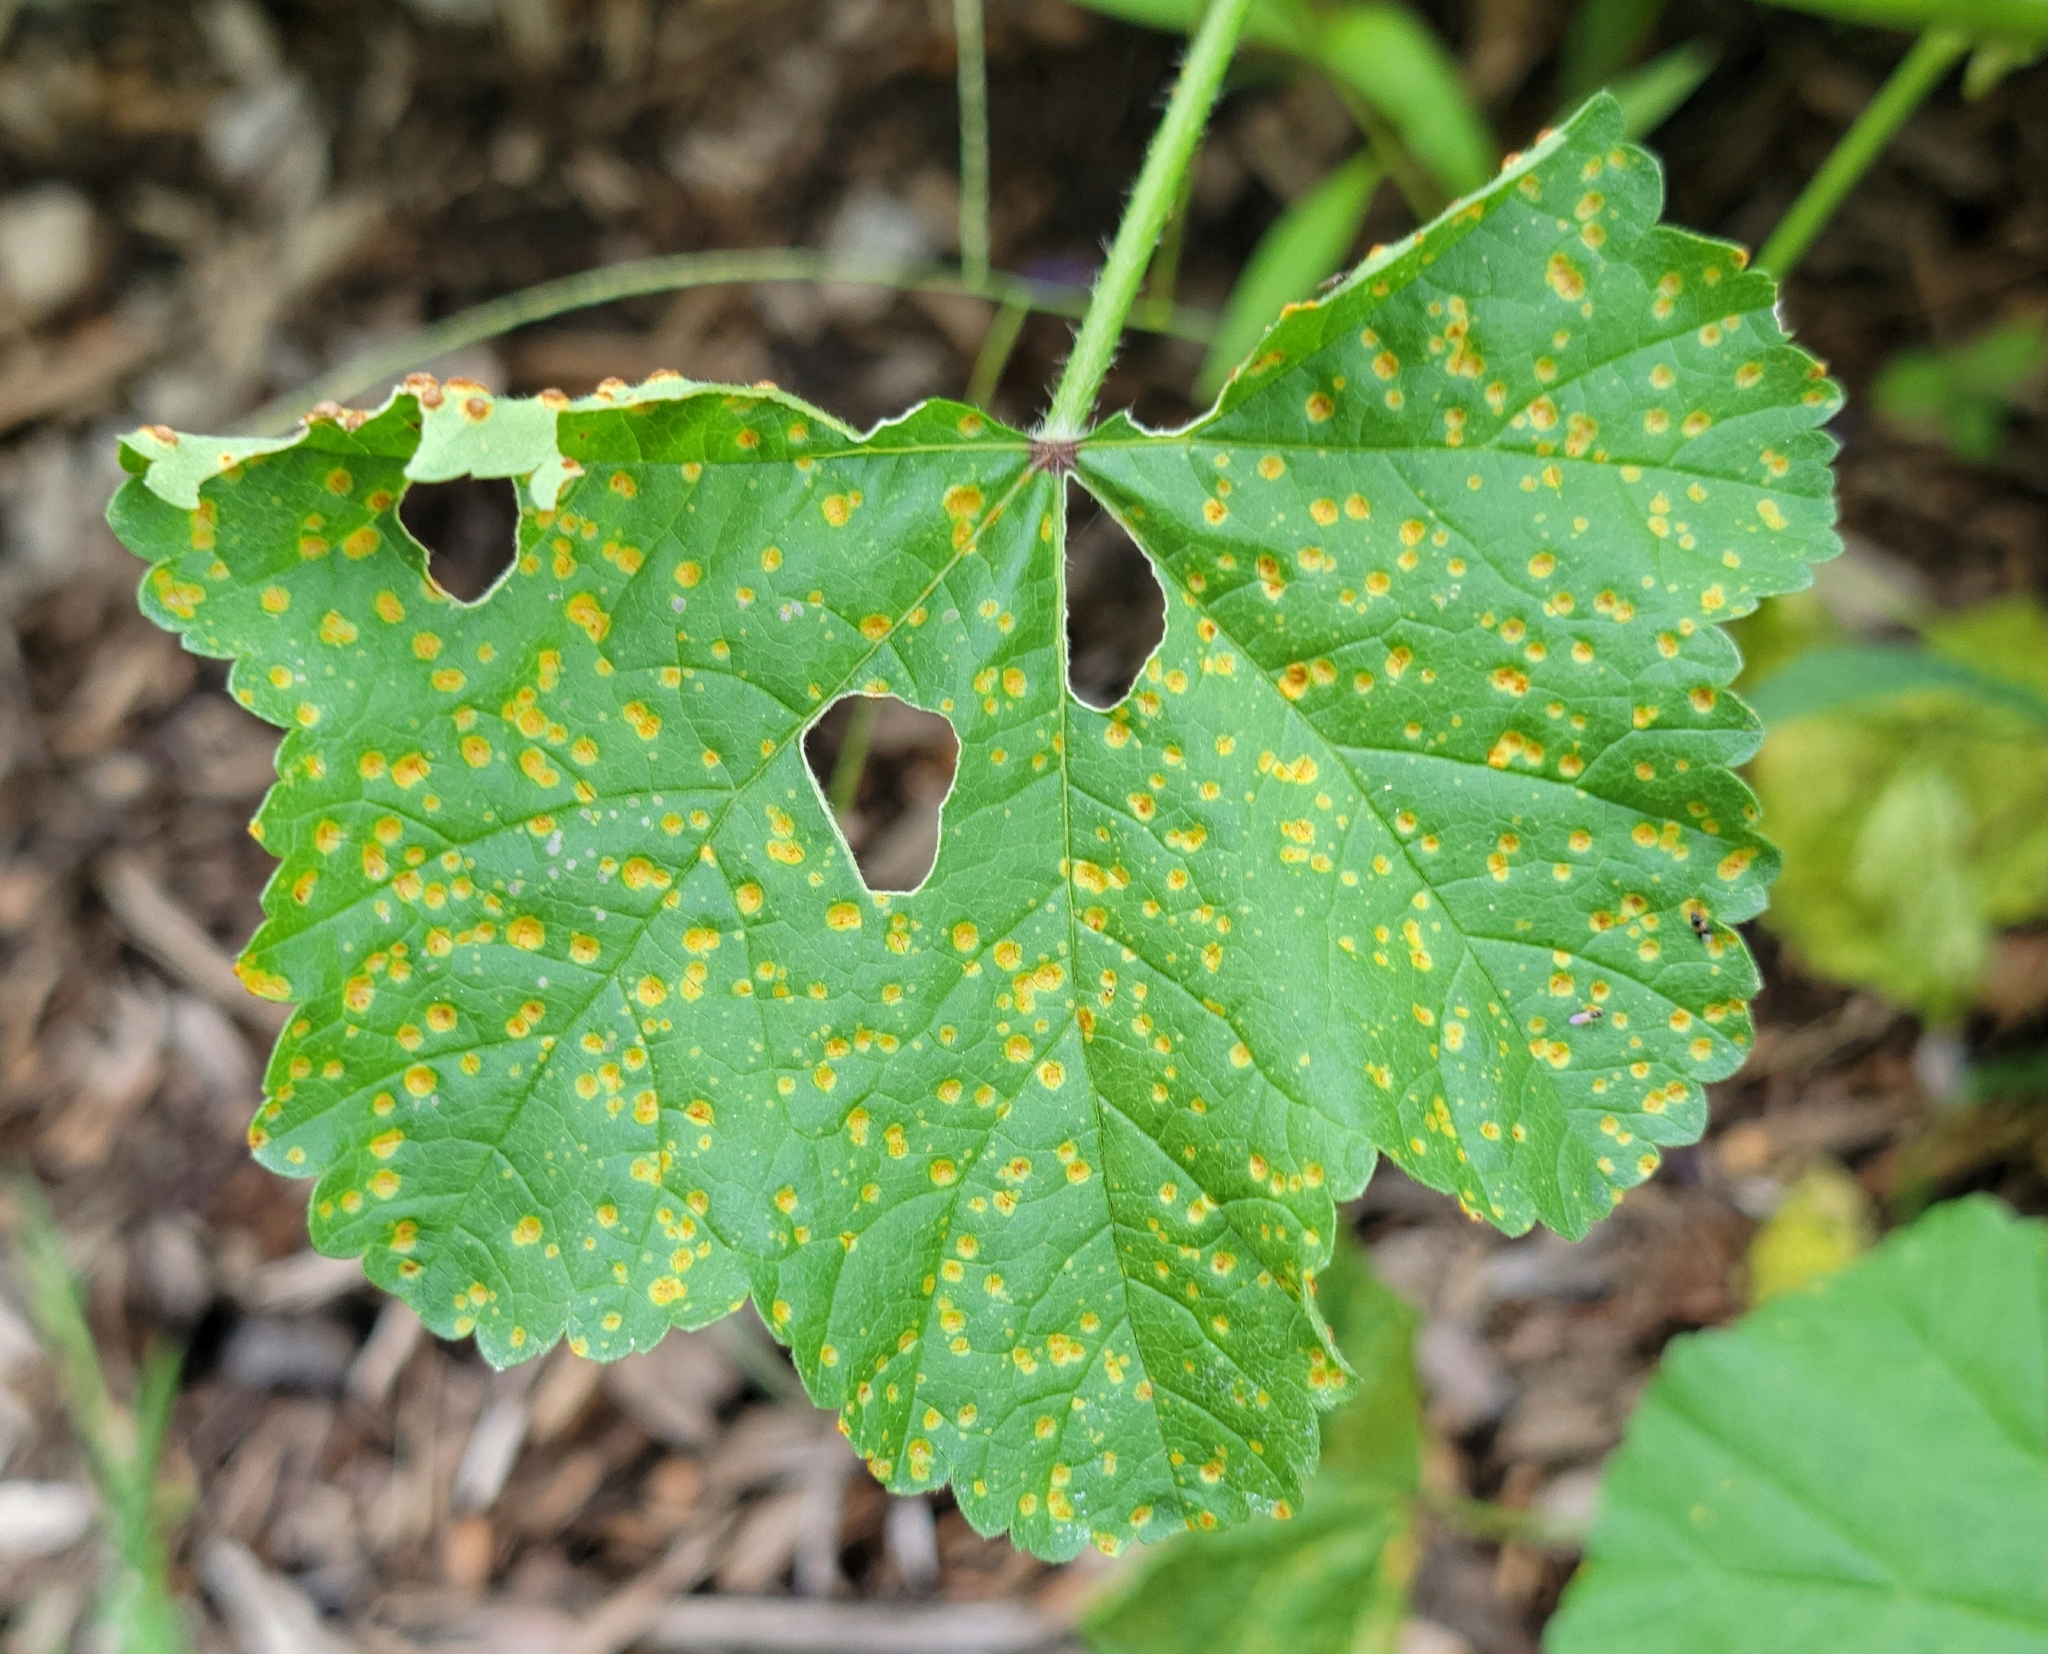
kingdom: Fungi
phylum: Basidiomycota
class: Pucciniomycetes
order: Pucciniales
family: Pucciniaceae
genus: Puccinia
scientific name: Puccinia malvacearum
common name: Hollyhock rust
